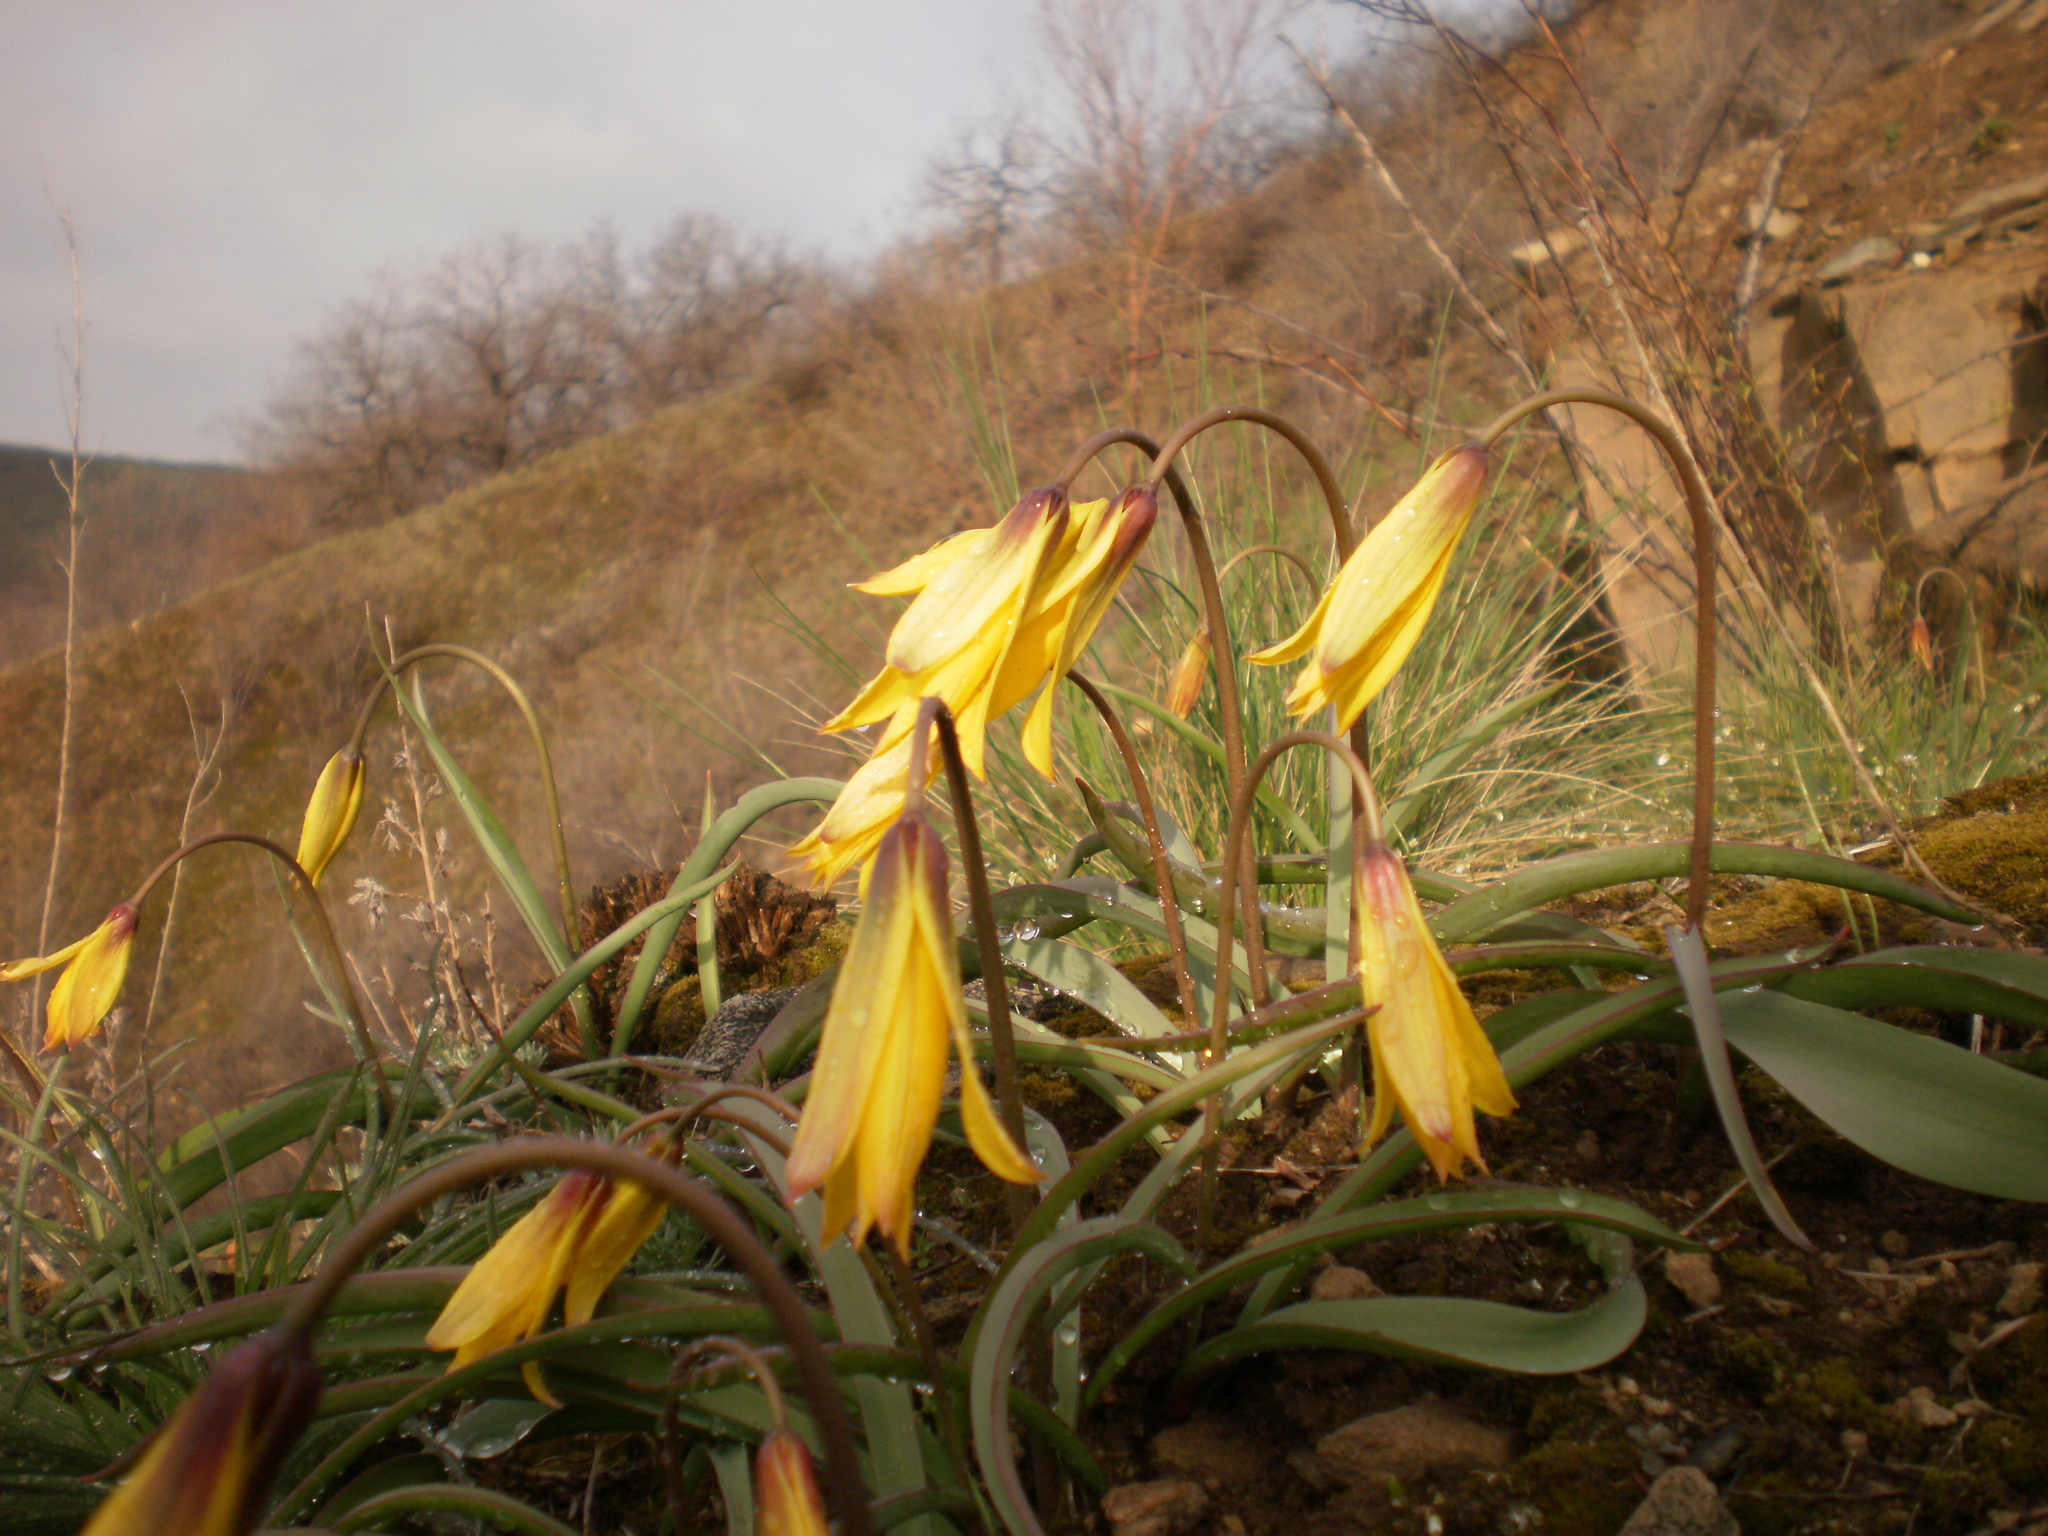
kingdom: Plantae
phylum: Tracheophyta
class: Liliopsida
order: Liliales
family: Liliaceae
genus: Tulipa
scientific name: Tulipa sylvestris
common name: Wild tulip
